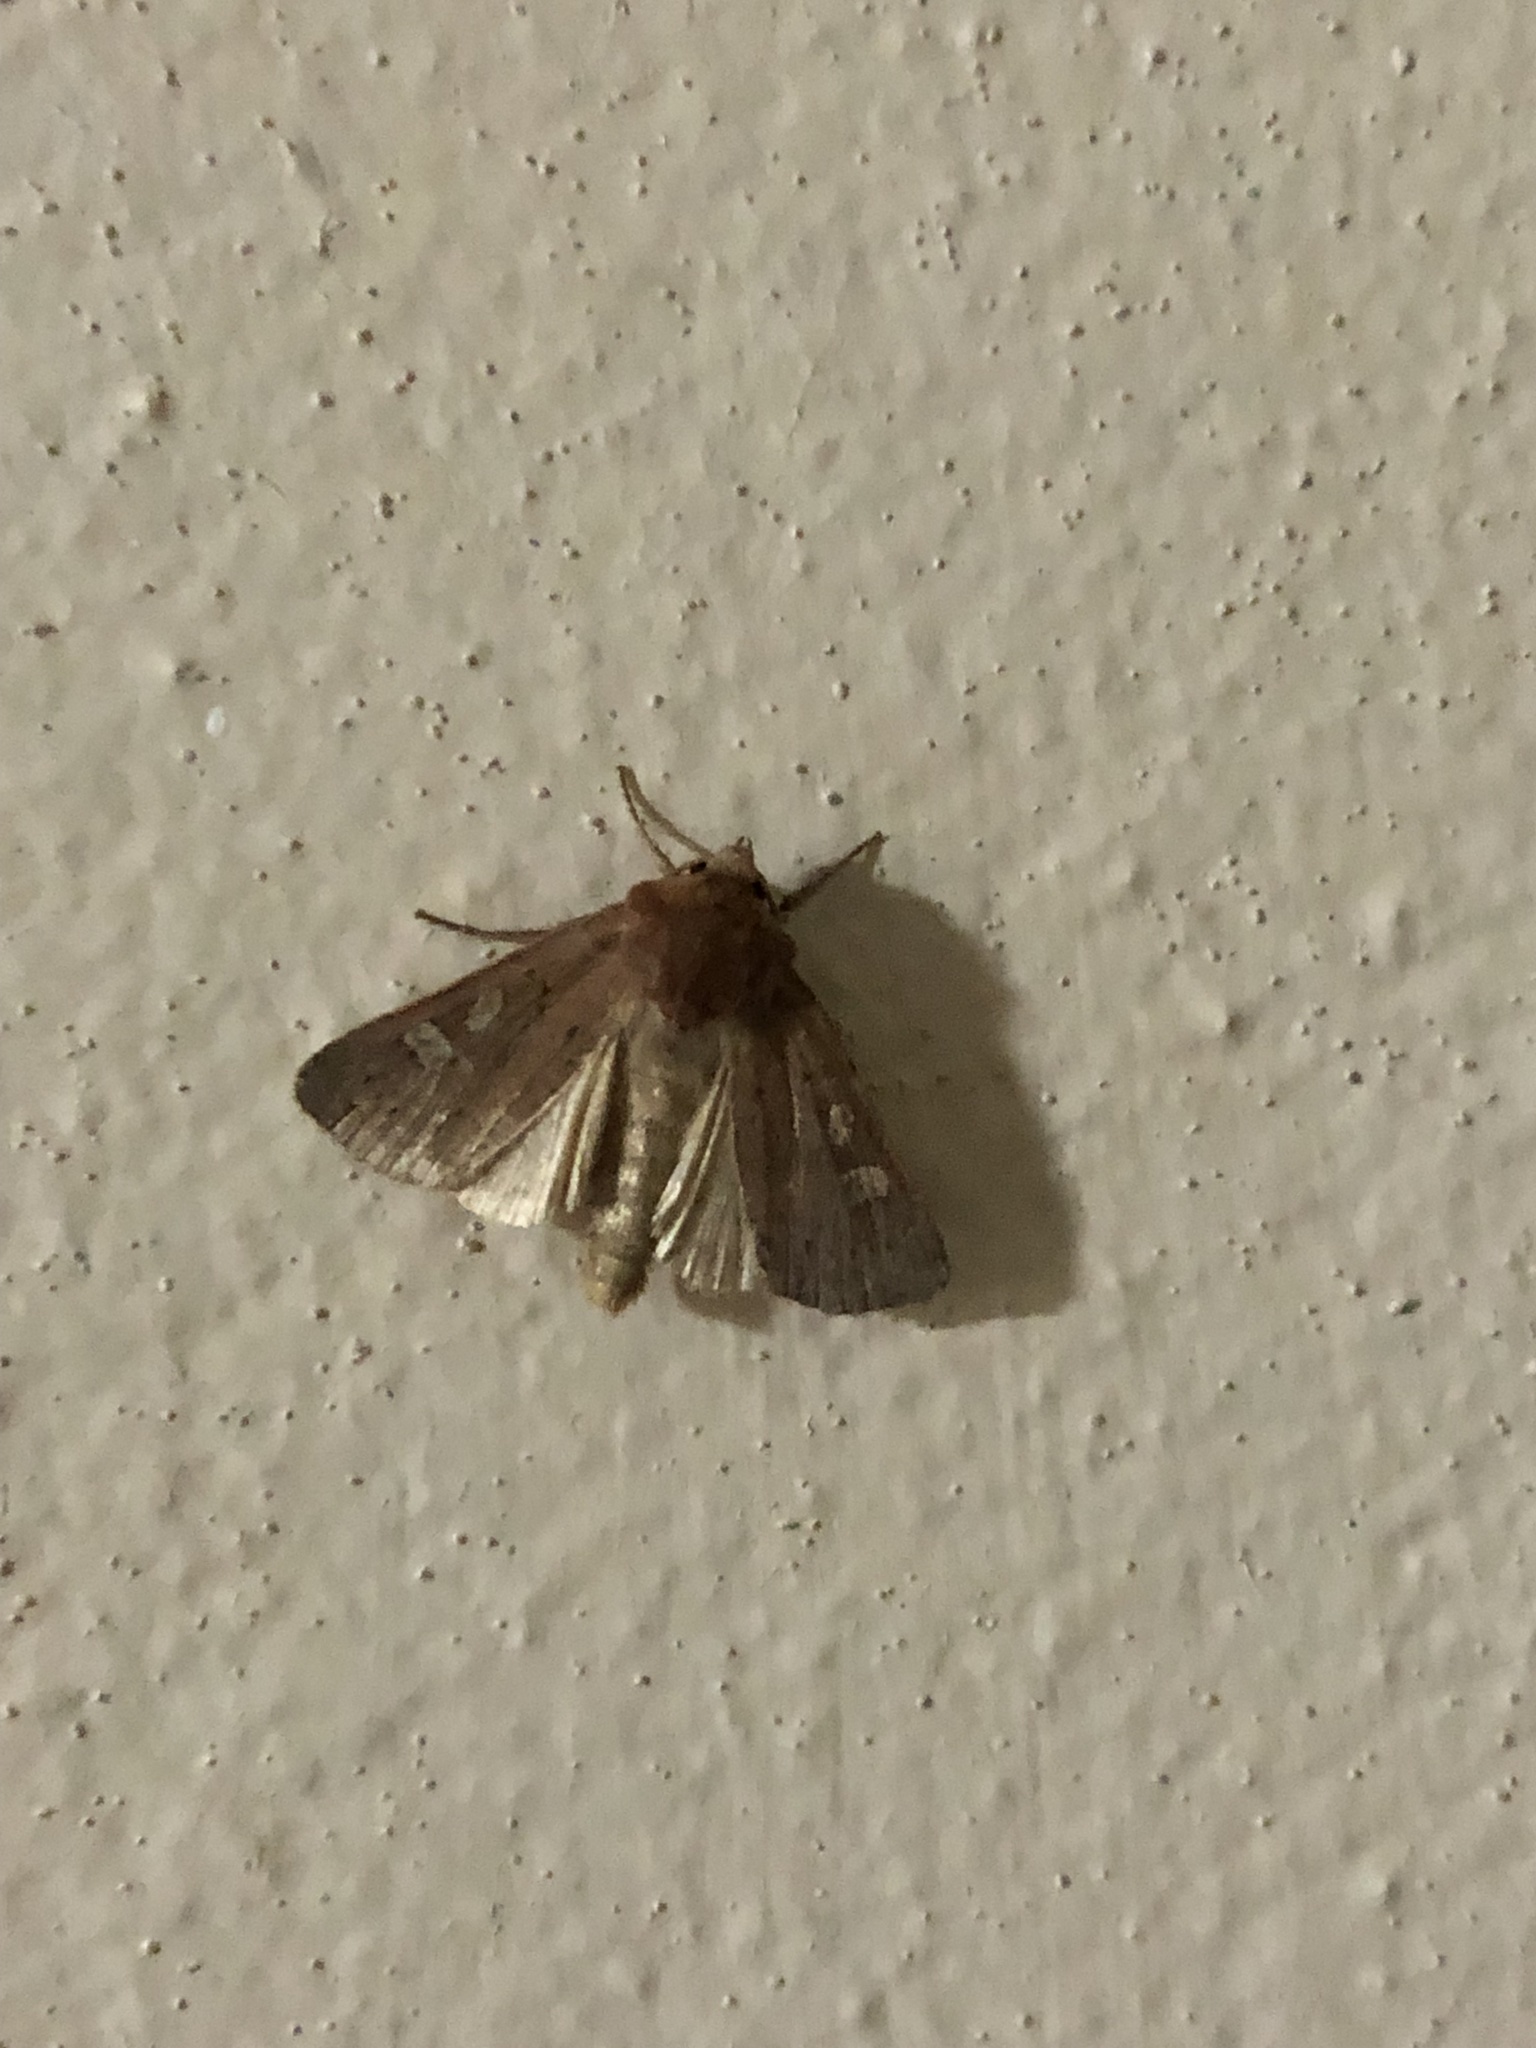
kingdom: Animalia
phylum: Arthropoda
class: Insecta
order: Lepidoptera
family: Noctuidae
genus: Xestia
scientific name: Xestia xanthographa
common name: Square-spot rustic
